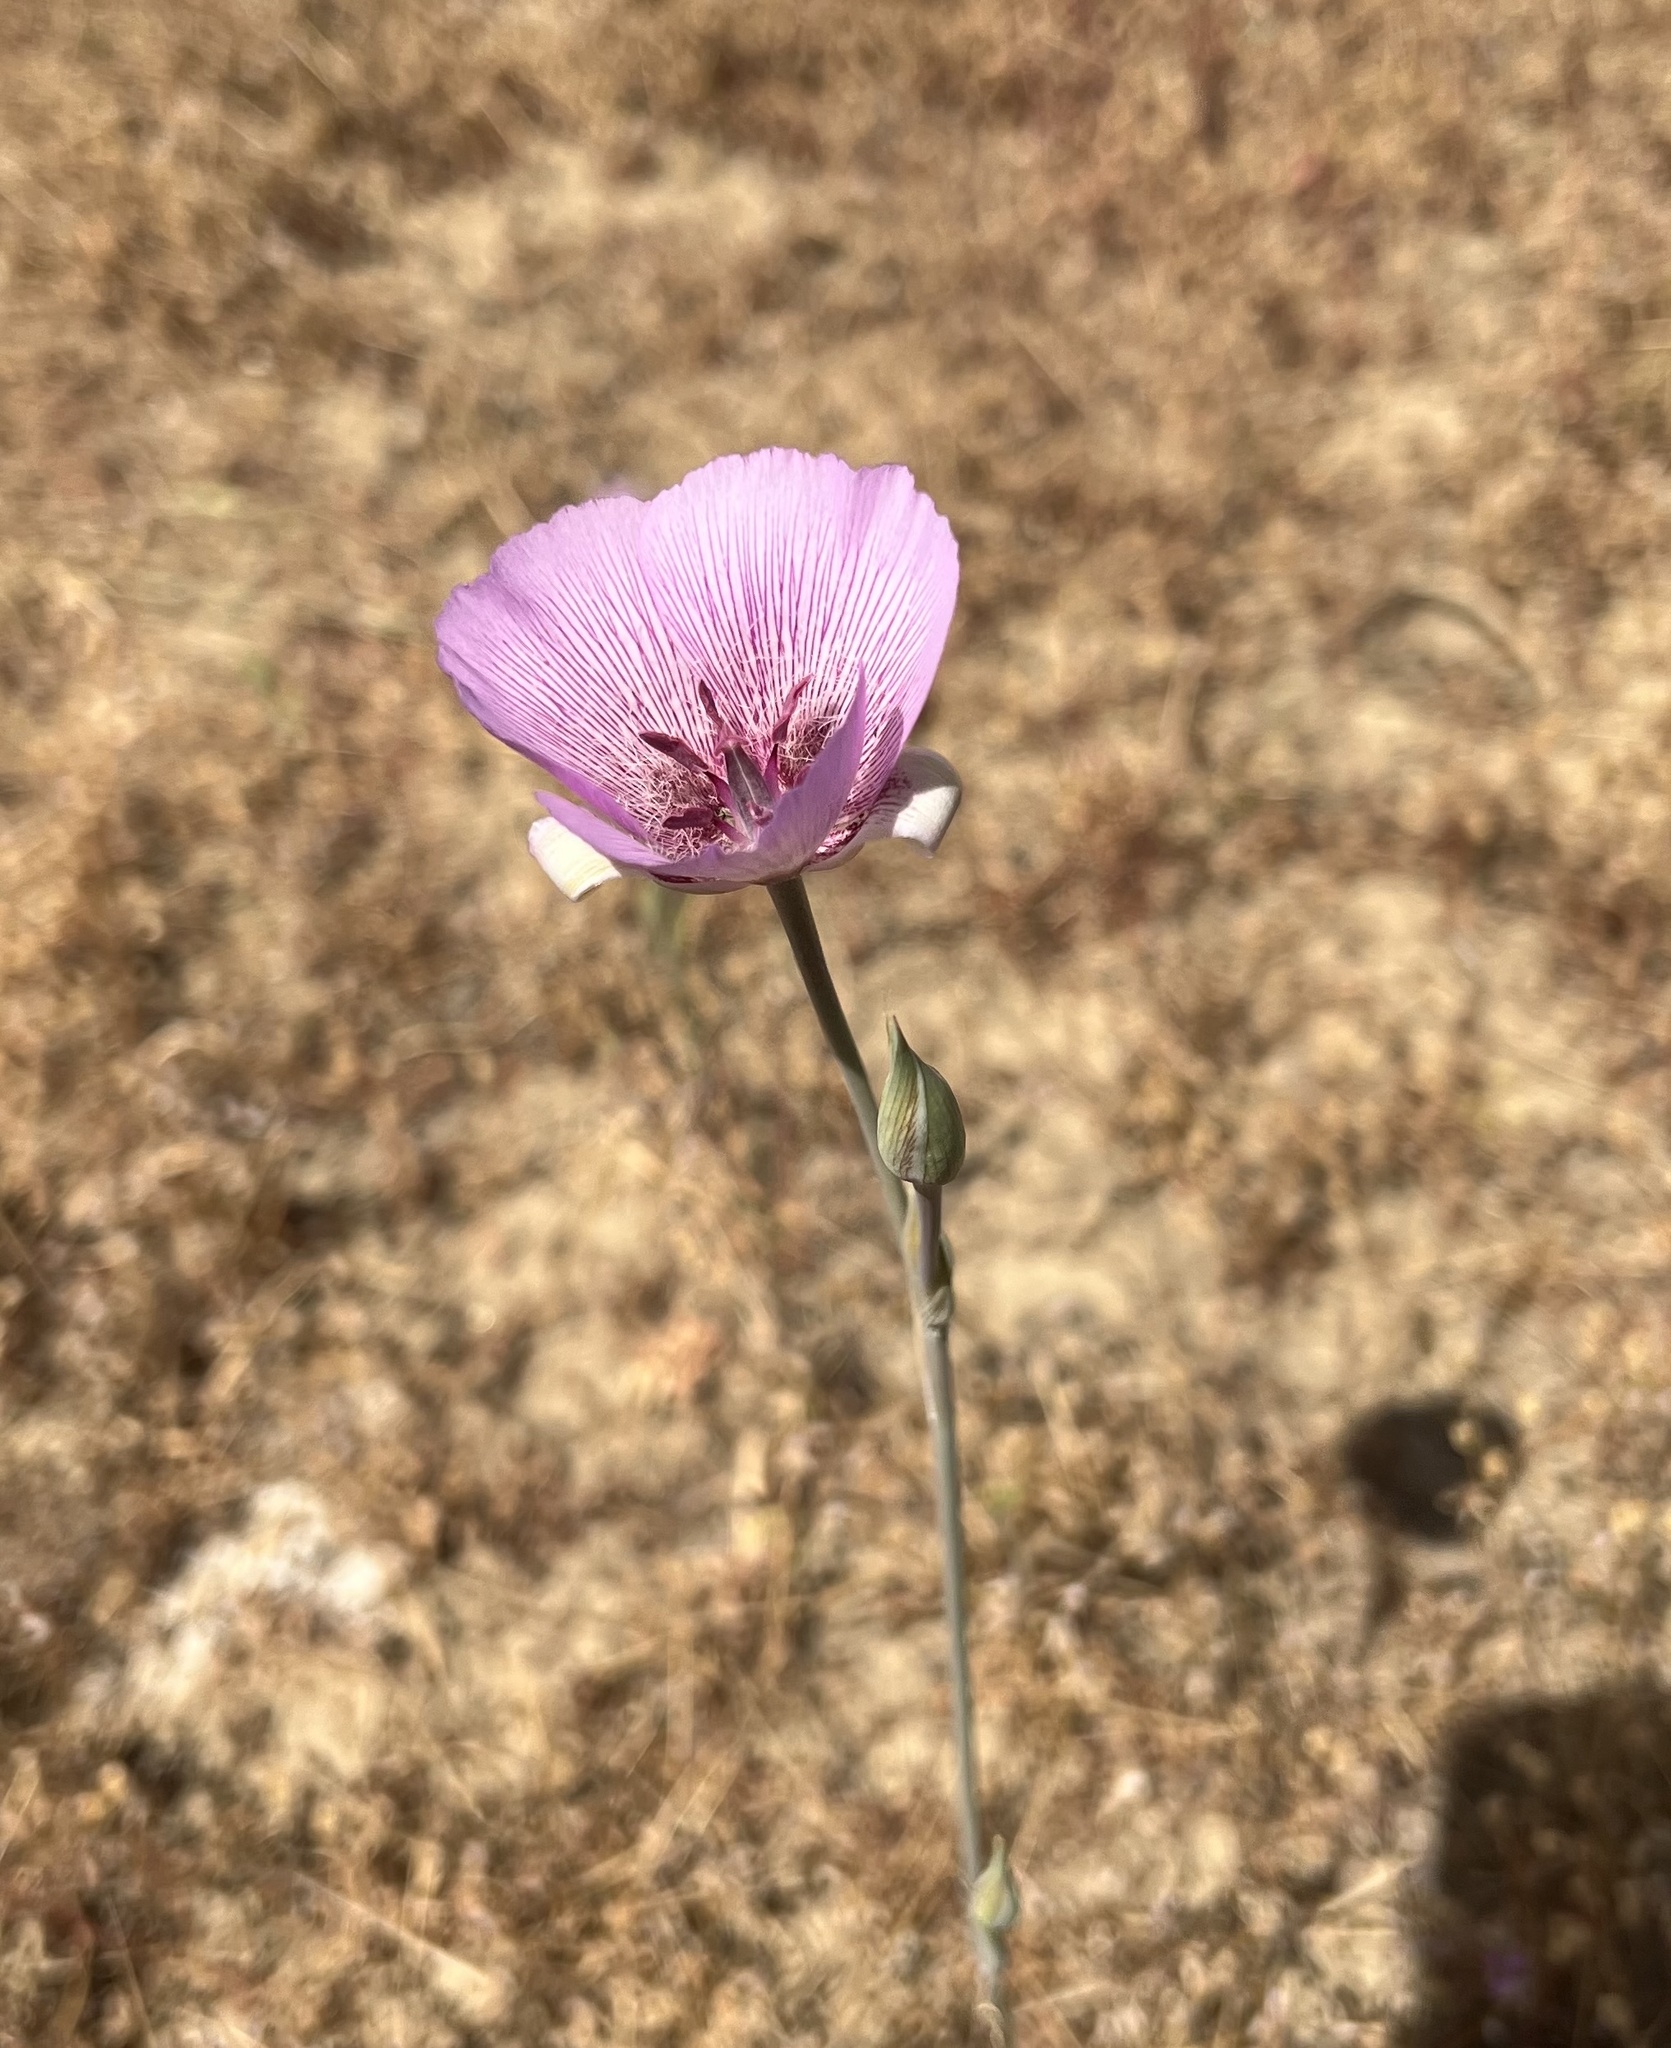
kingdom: Plantae
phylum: Tracheophyta
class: Liliopsida
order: Liliales
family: Liliaceae
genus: Calochortus
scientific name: Calochortus striatus
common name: Alkali mariposa-lily
